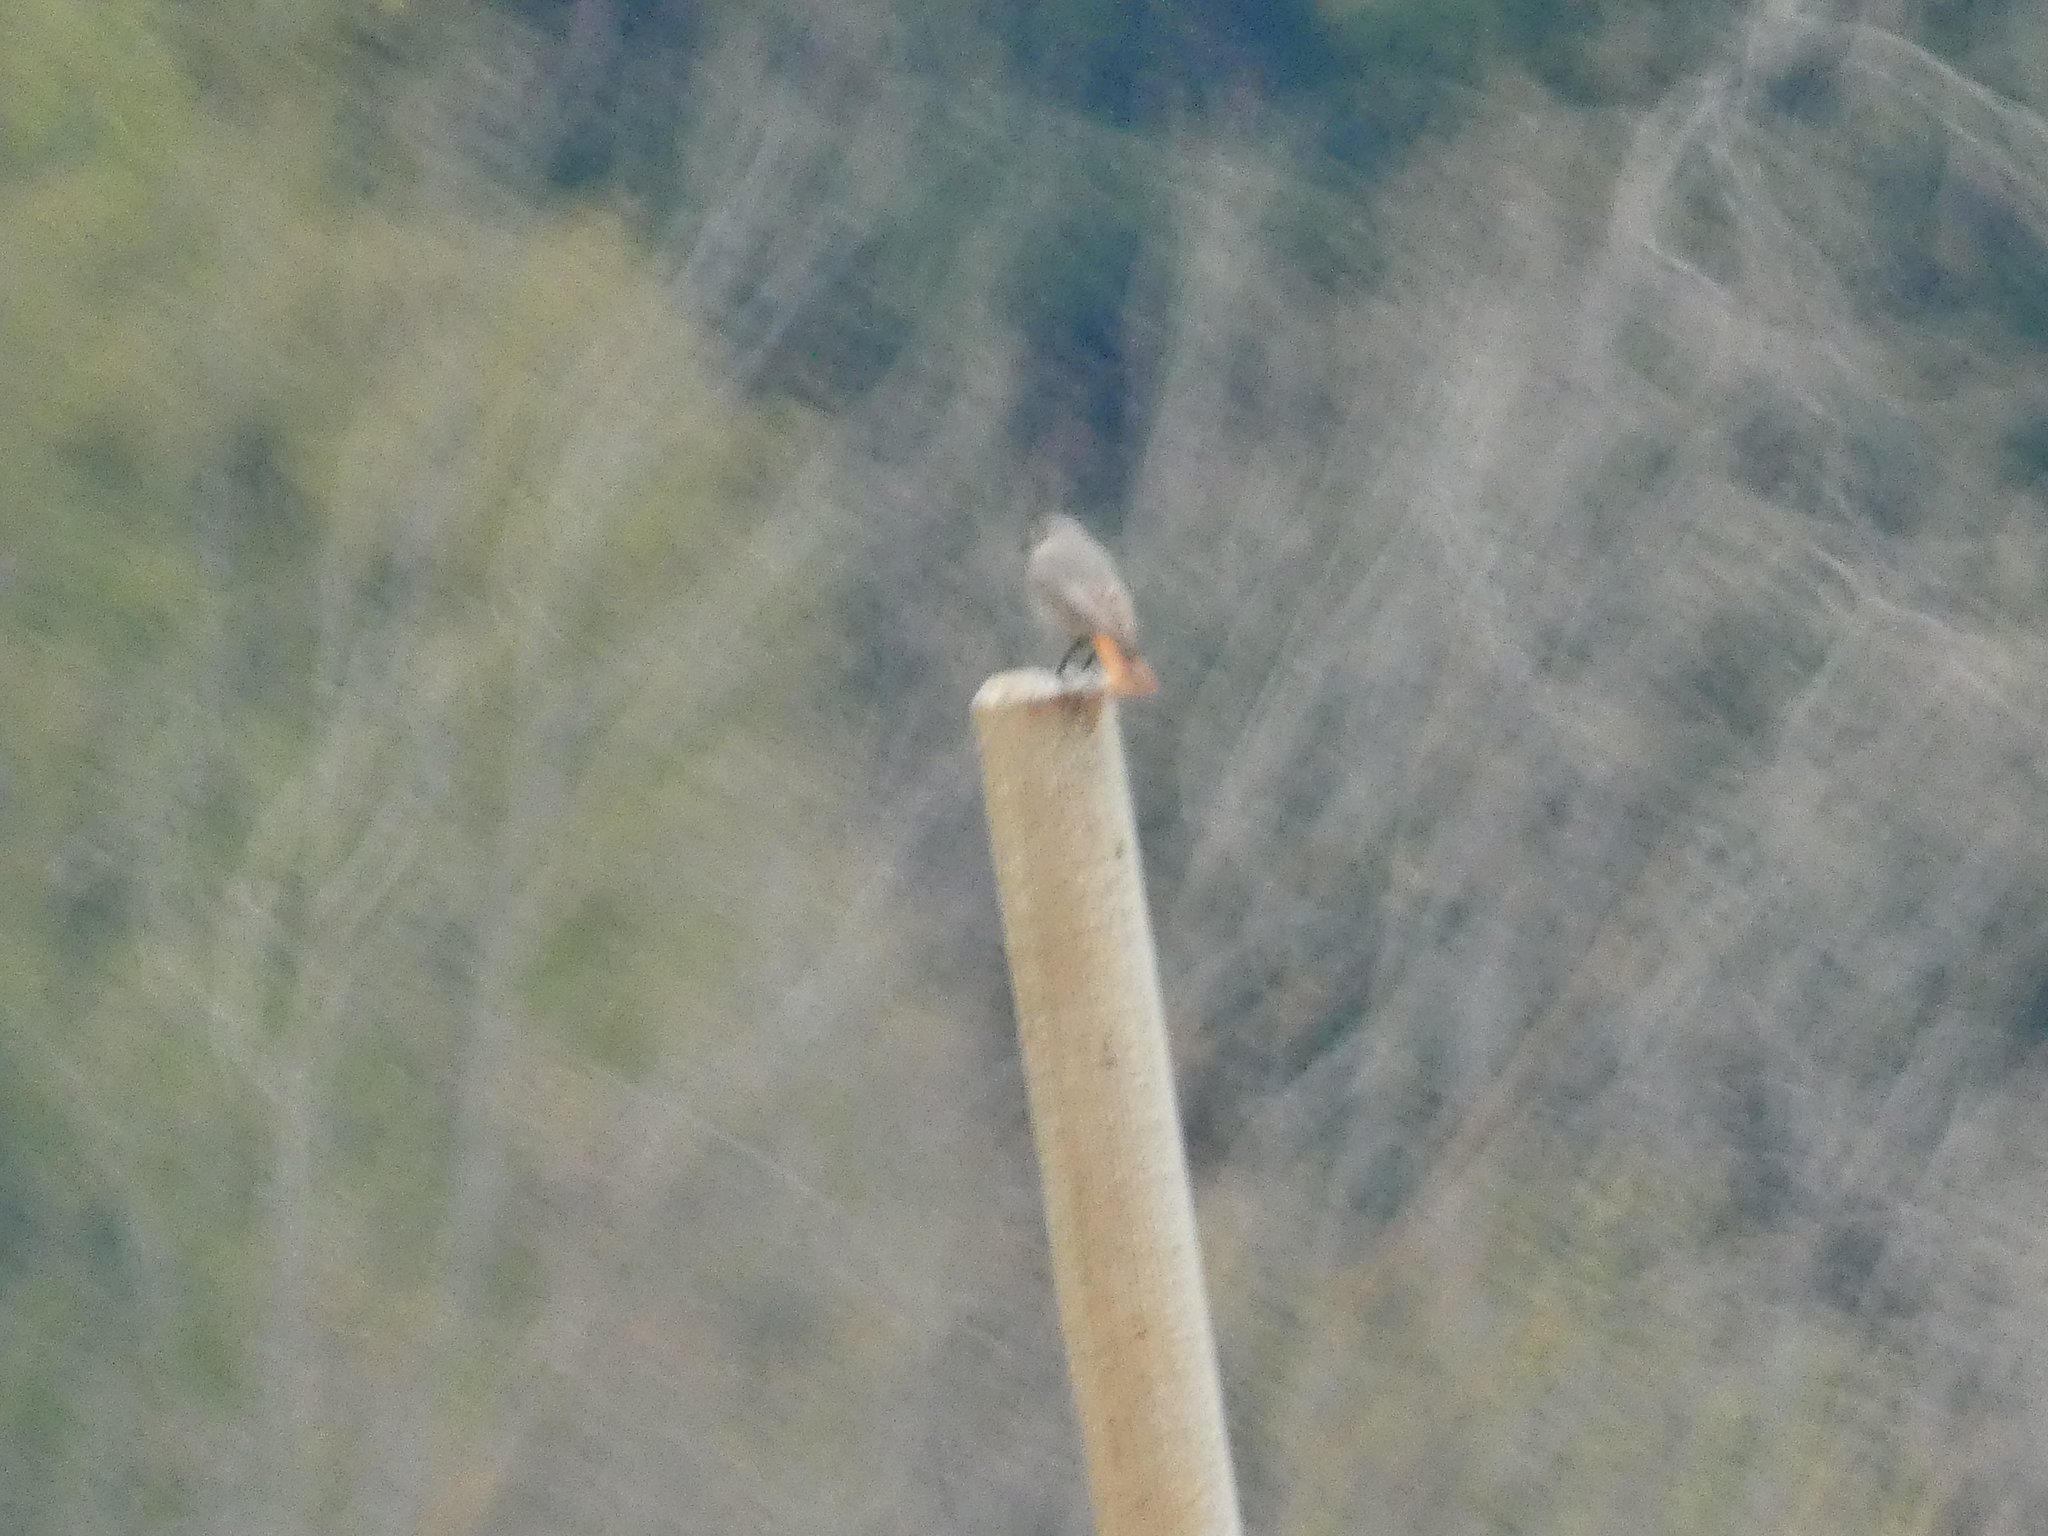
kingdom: Animalia
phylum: Chordata
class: Aves
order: Passeriformes
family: Muscicapidae
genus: Phoenicurus
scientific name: Phoenicurus ochruros
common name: Black redstart
